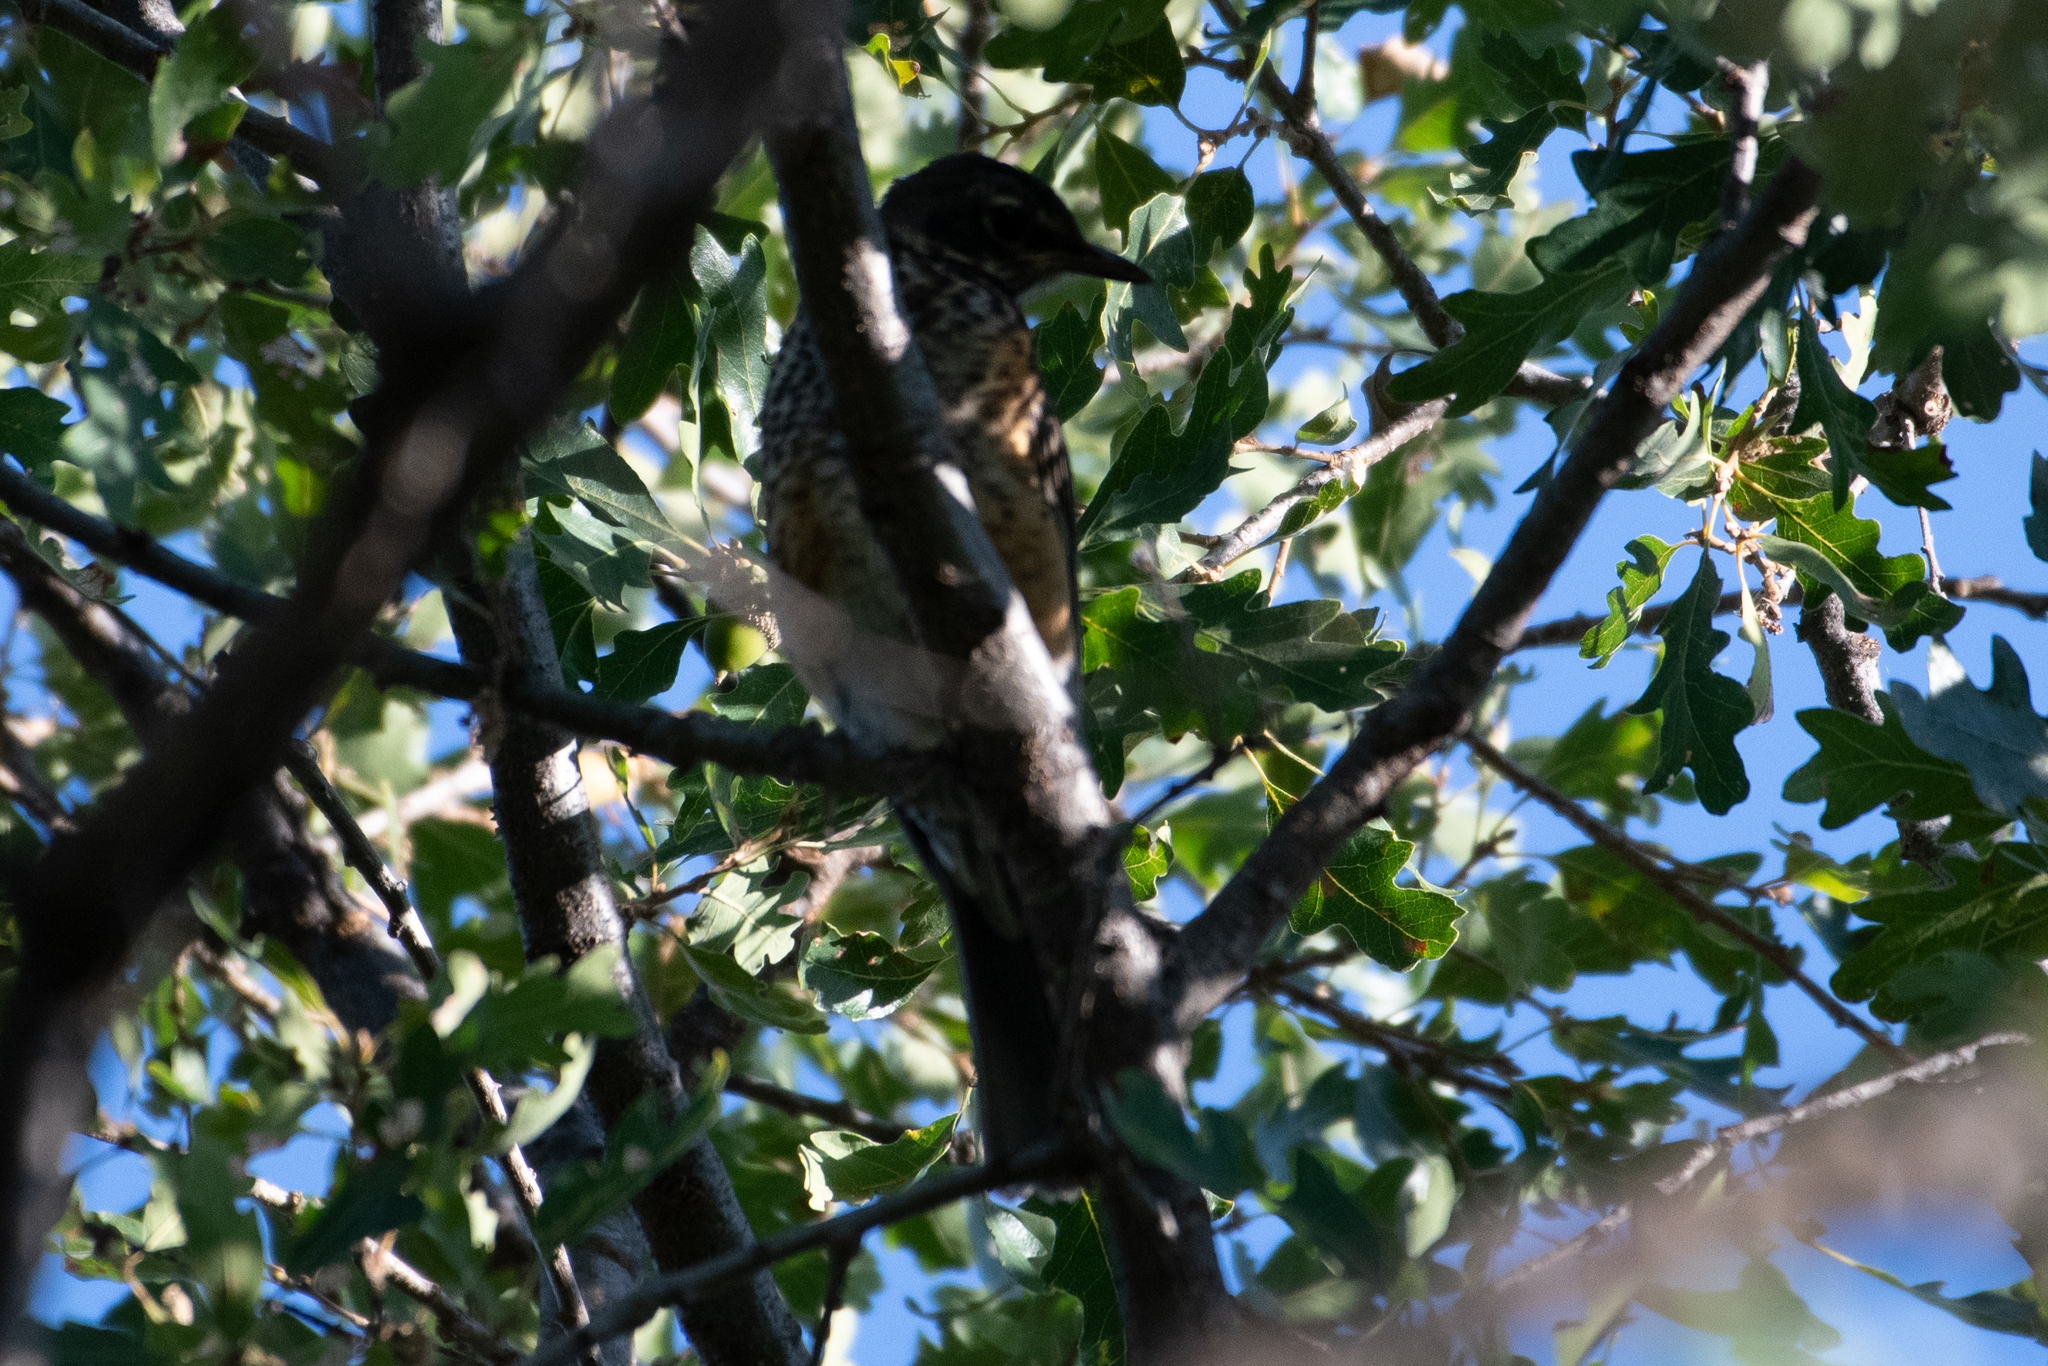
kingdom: Animalia
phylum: Chordata
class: Aves
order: Passeriformes
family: Turdidae
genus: Turdus
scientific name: Turdus migratorius
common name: American robin
